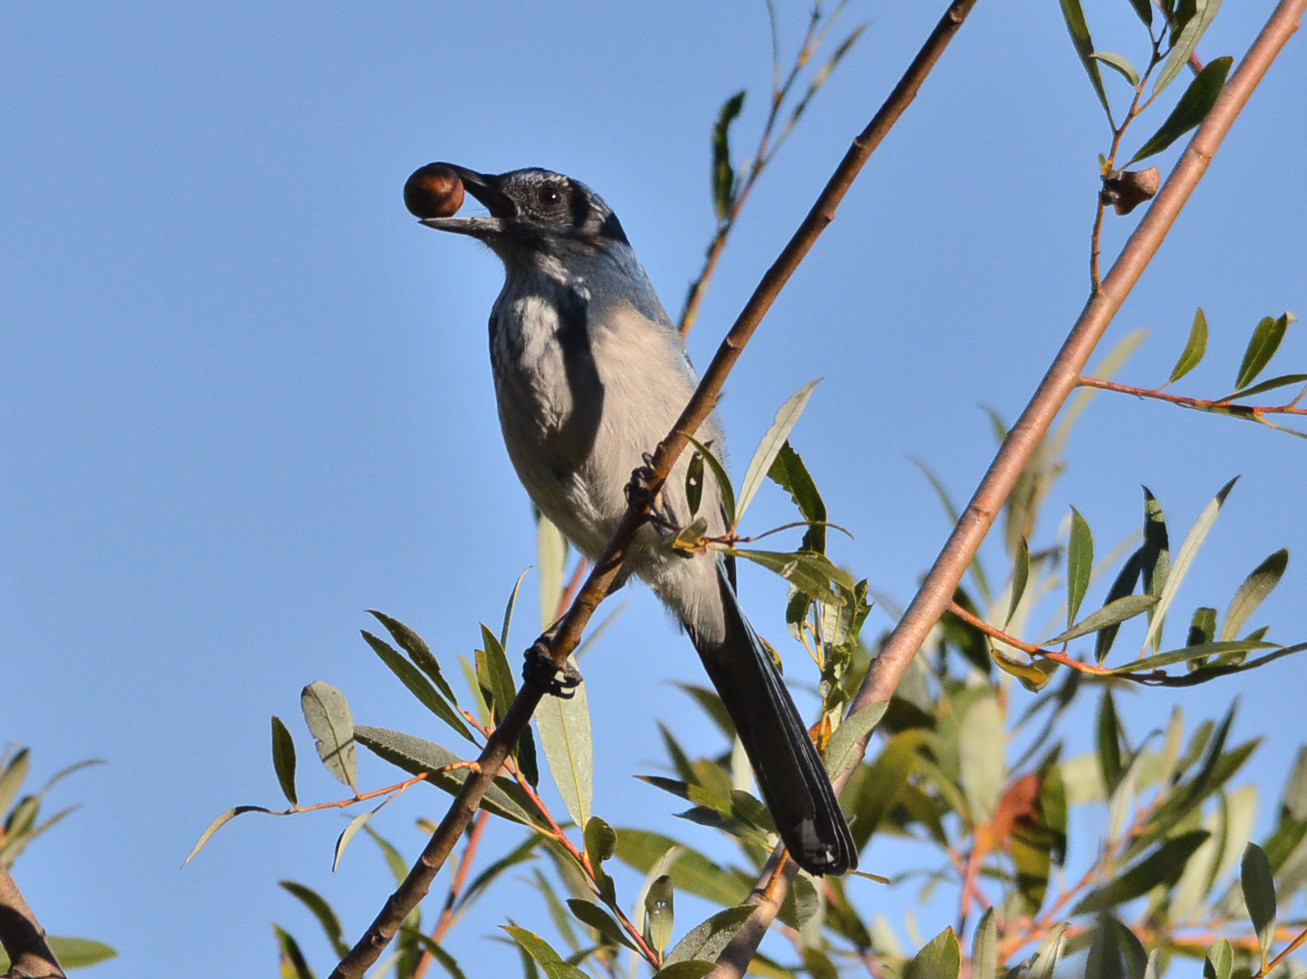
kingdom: Animalia
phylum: Chordata
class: Aves
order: Passeriformes
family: Corvidae
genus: Aphelocoma
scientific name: Aphelocoma californica
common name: California scrub-jay
